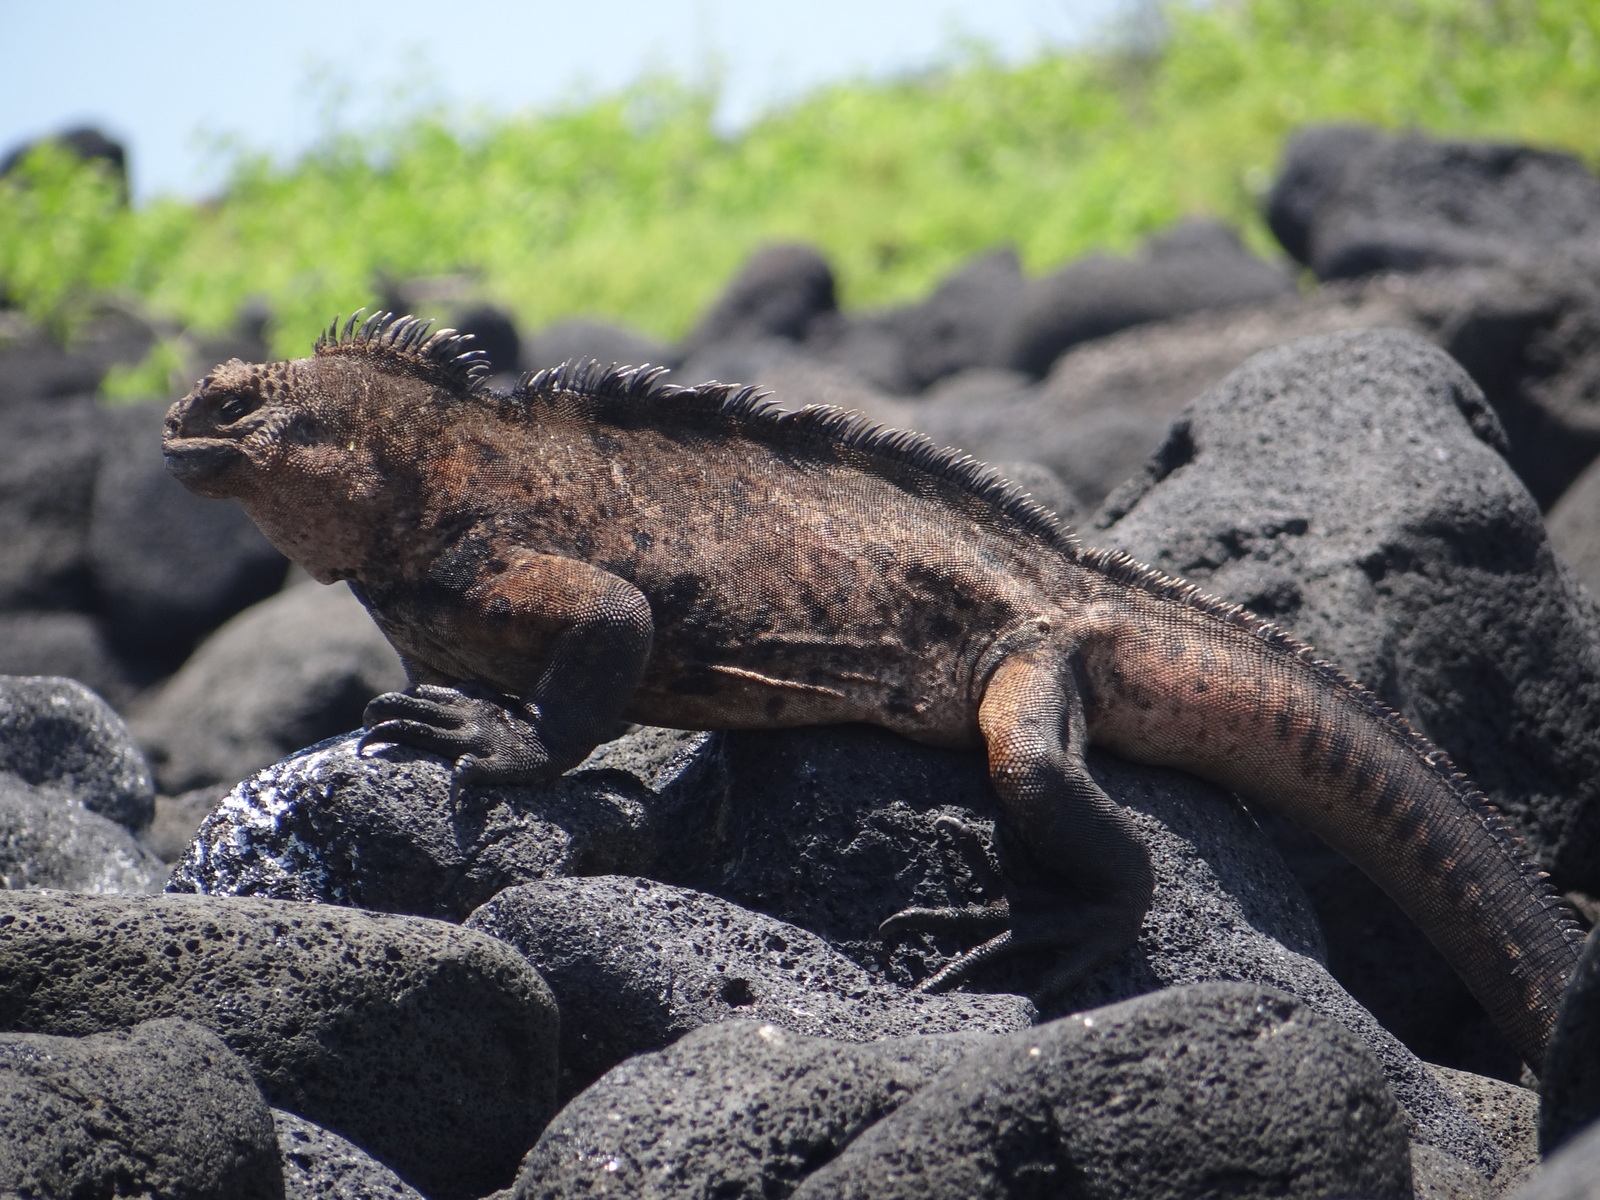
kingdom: Animalia
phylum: Chordata
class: Squamata
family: Iguanidae
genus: Amblyrhynchus
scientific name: Amblyrhynchus cristatus
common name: Marine iguana
